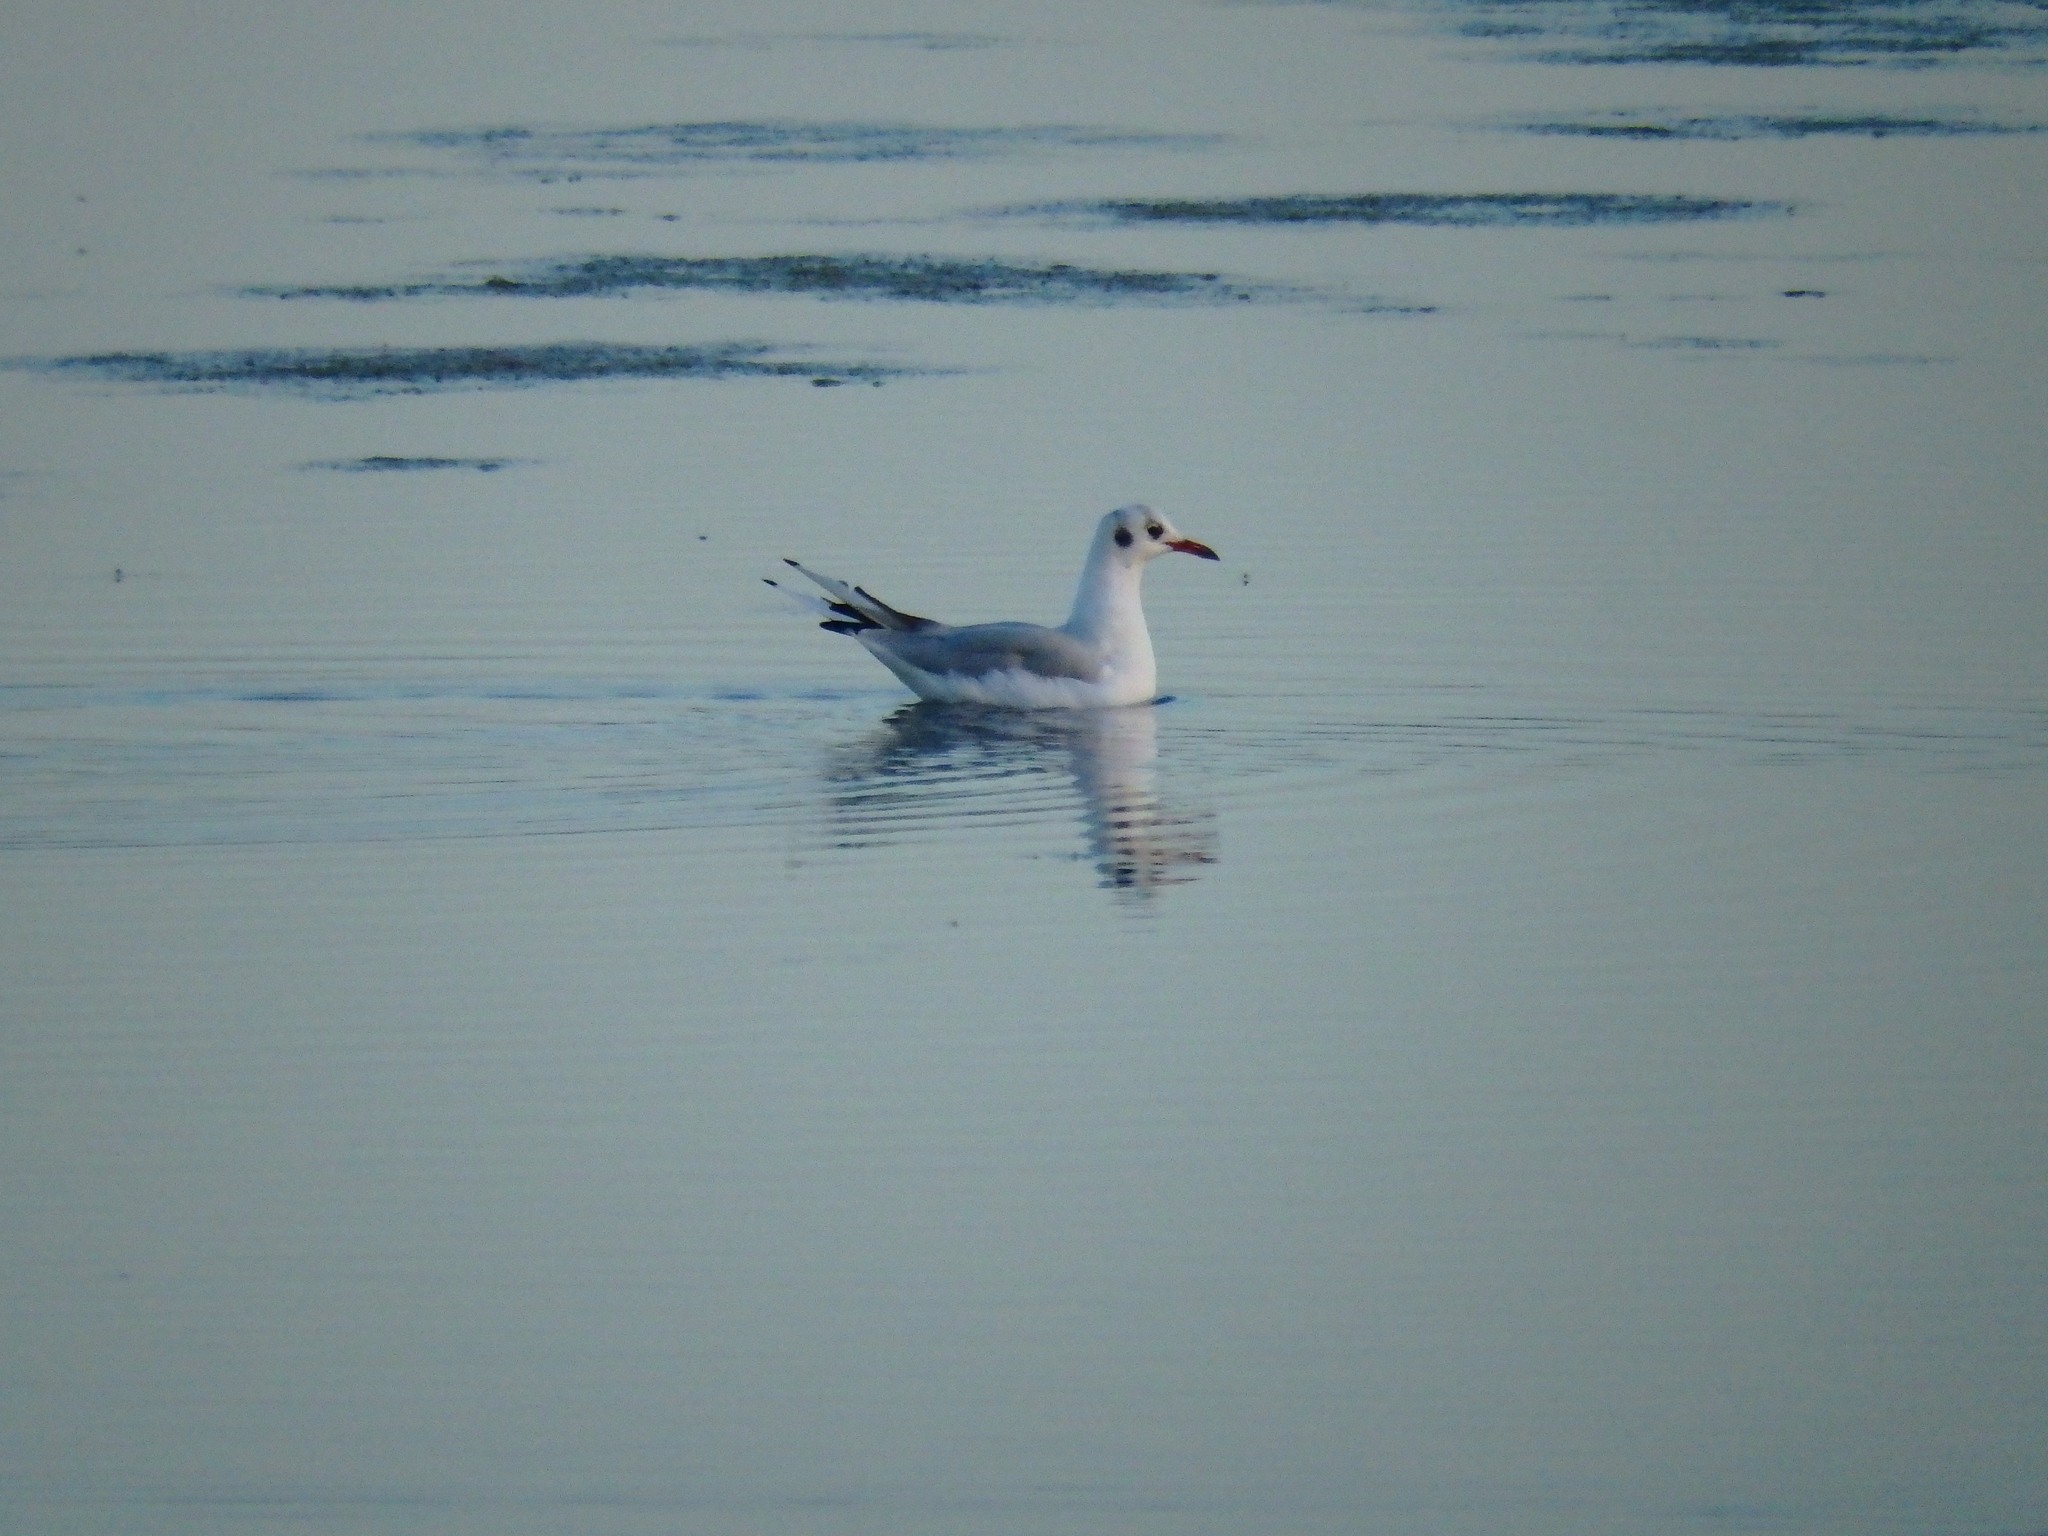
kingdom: Animalia
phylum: Chordata
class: Aves
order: Charadriiformes
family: Laridae
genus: Chroicocephalus
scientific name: Chroicocephalus ridibundus
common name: Black-headed gull
